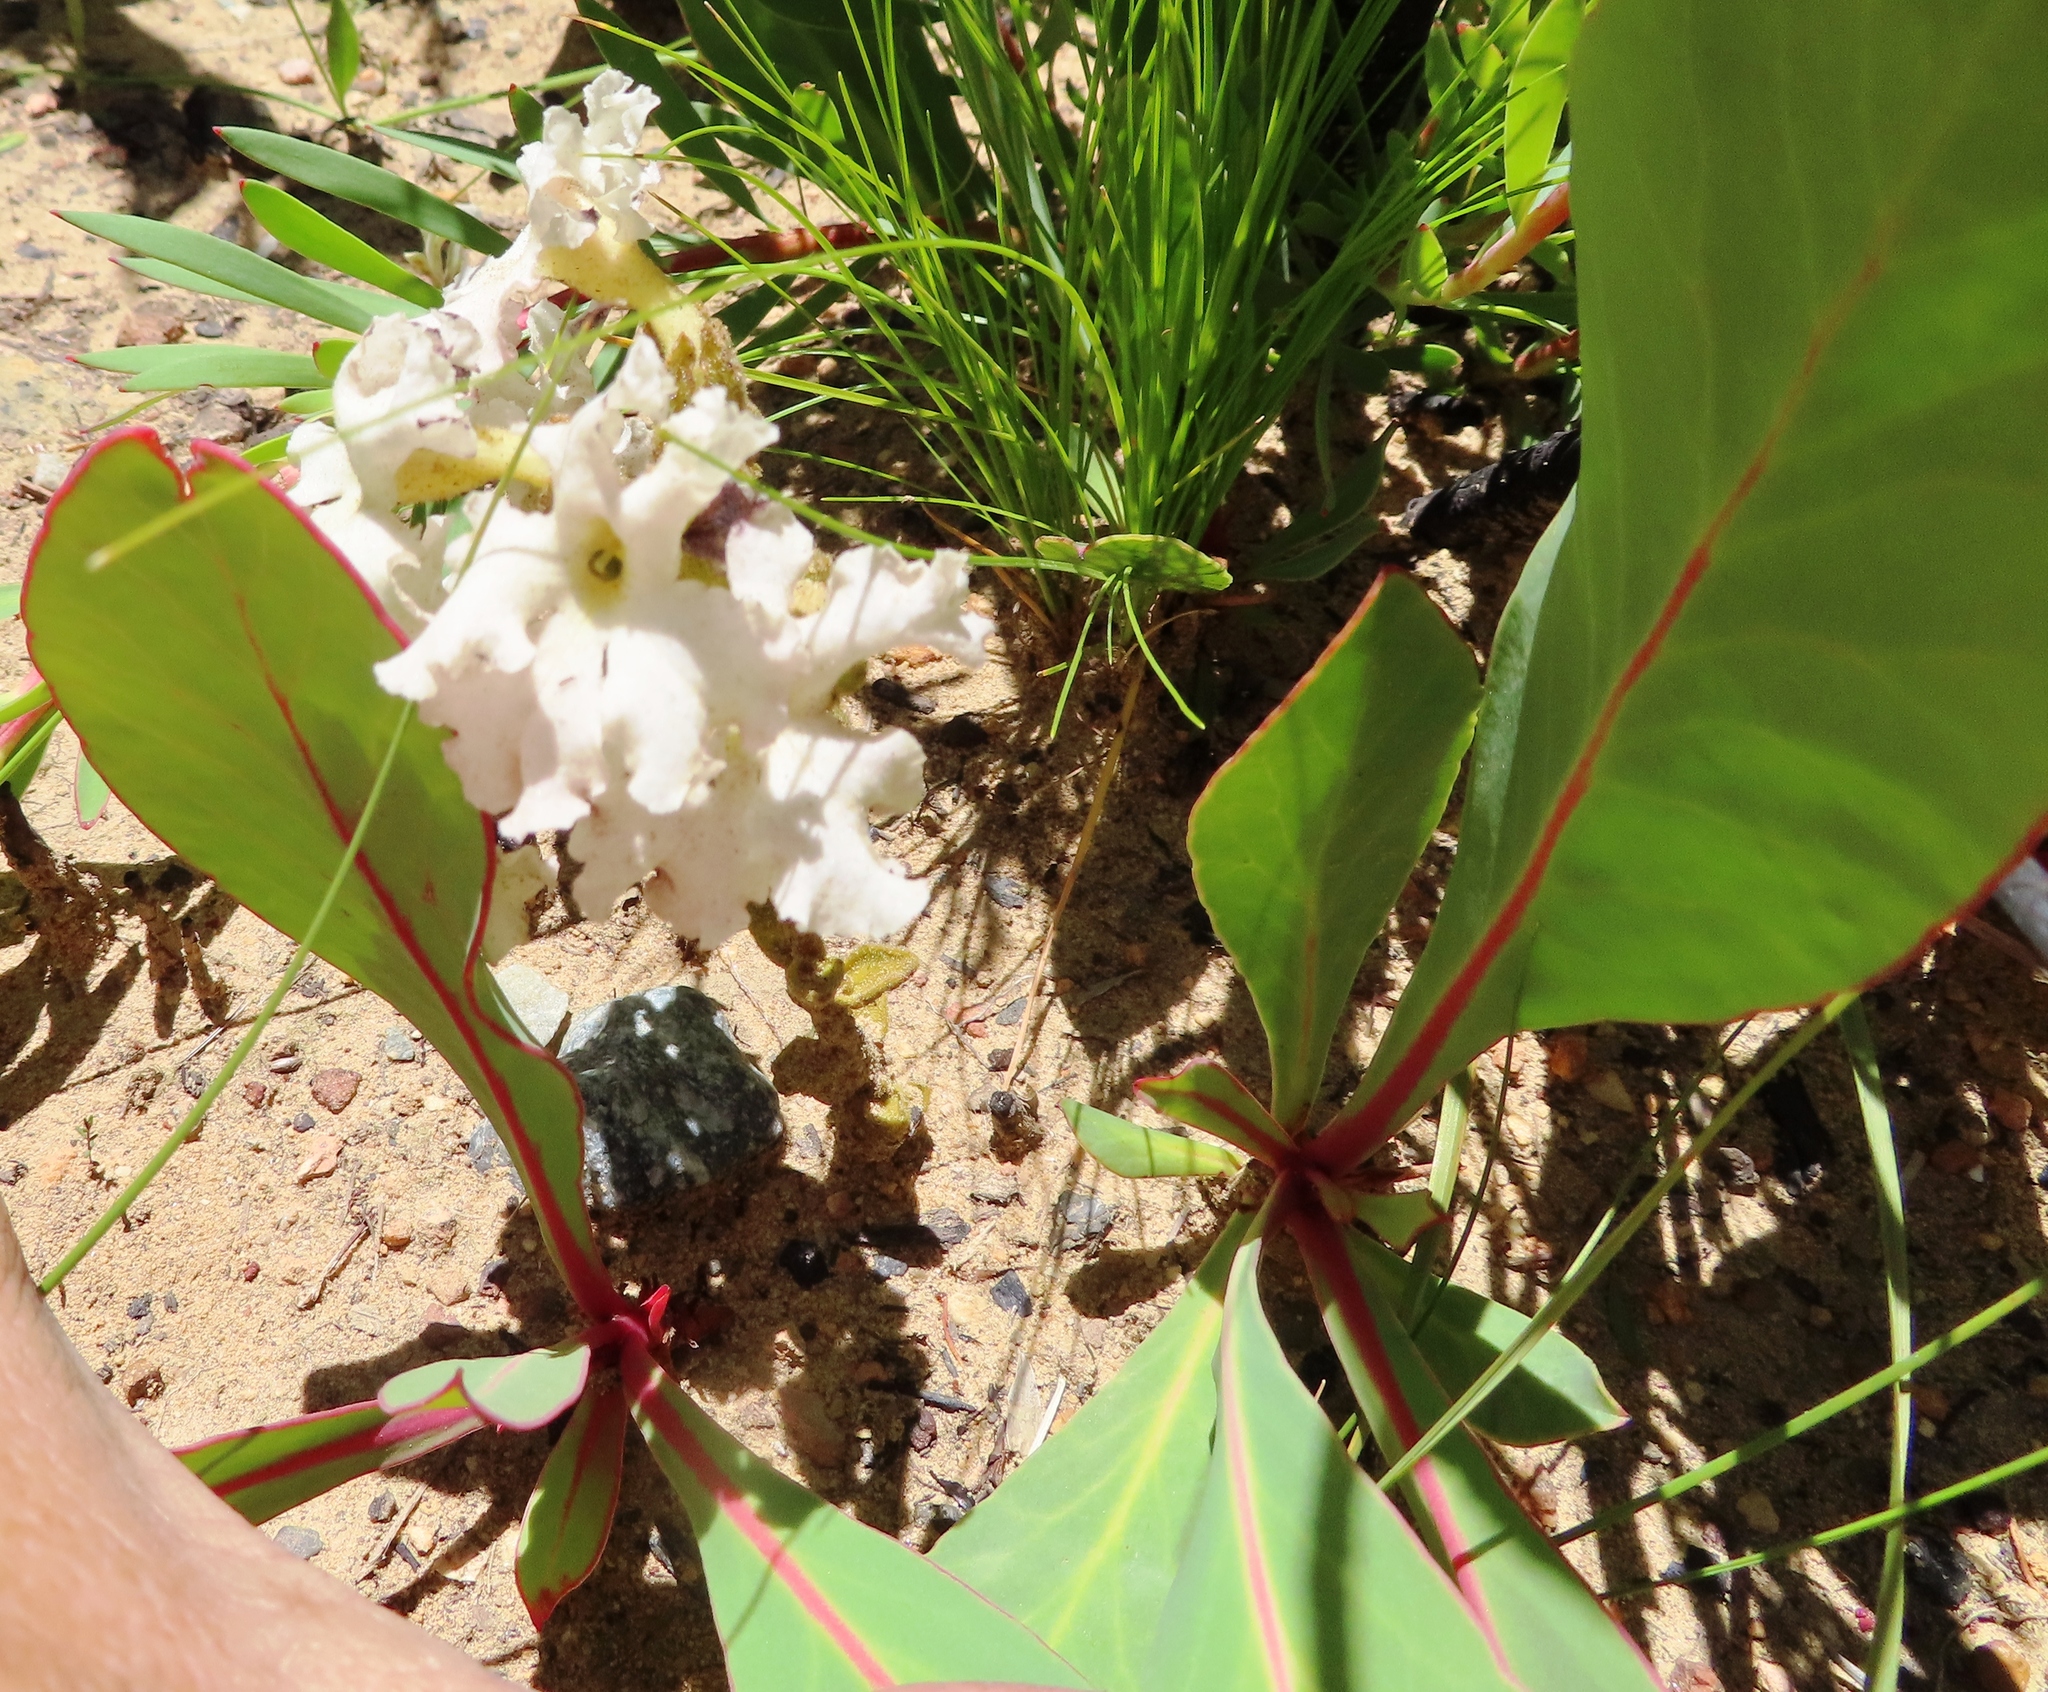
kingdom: Plantae
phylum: Tracheophyta
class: Magnoliopsida
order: Proteales
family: Proteaceae
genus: Protea
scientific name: Protea acaulos
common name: Common ground sugarbush
